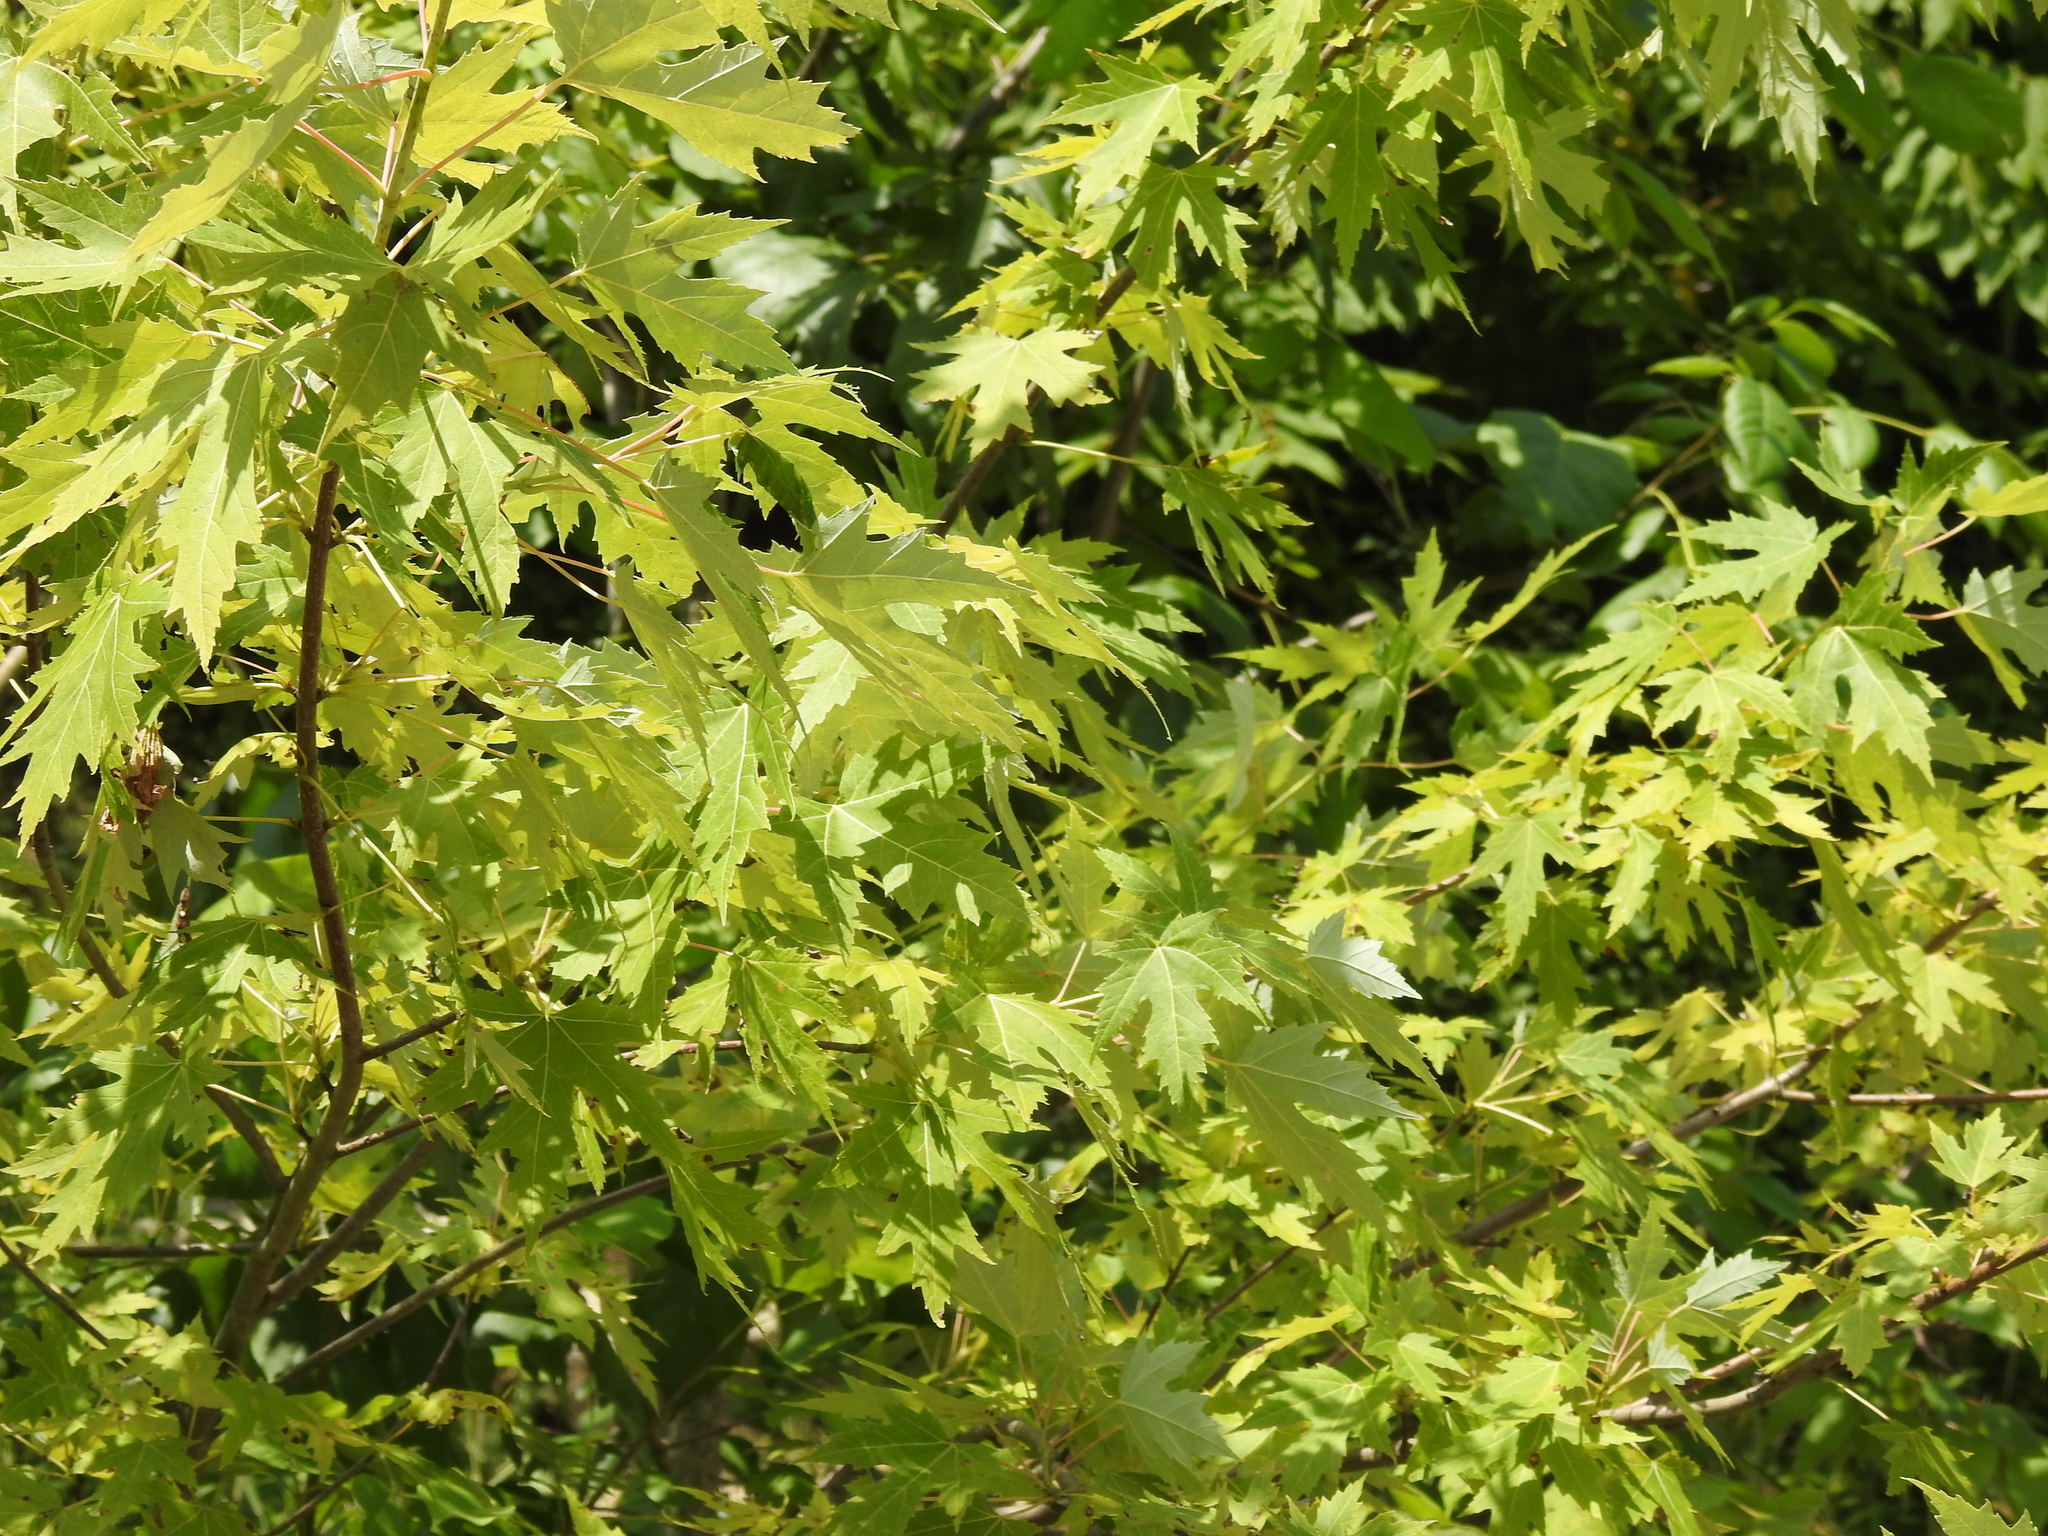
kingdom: Plantae
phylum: Tracheophyta
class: Magnoliopsida
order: Sapindales
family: Sapindaceae
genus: Acer
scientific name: Acer saccharinum
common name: Silver maple
